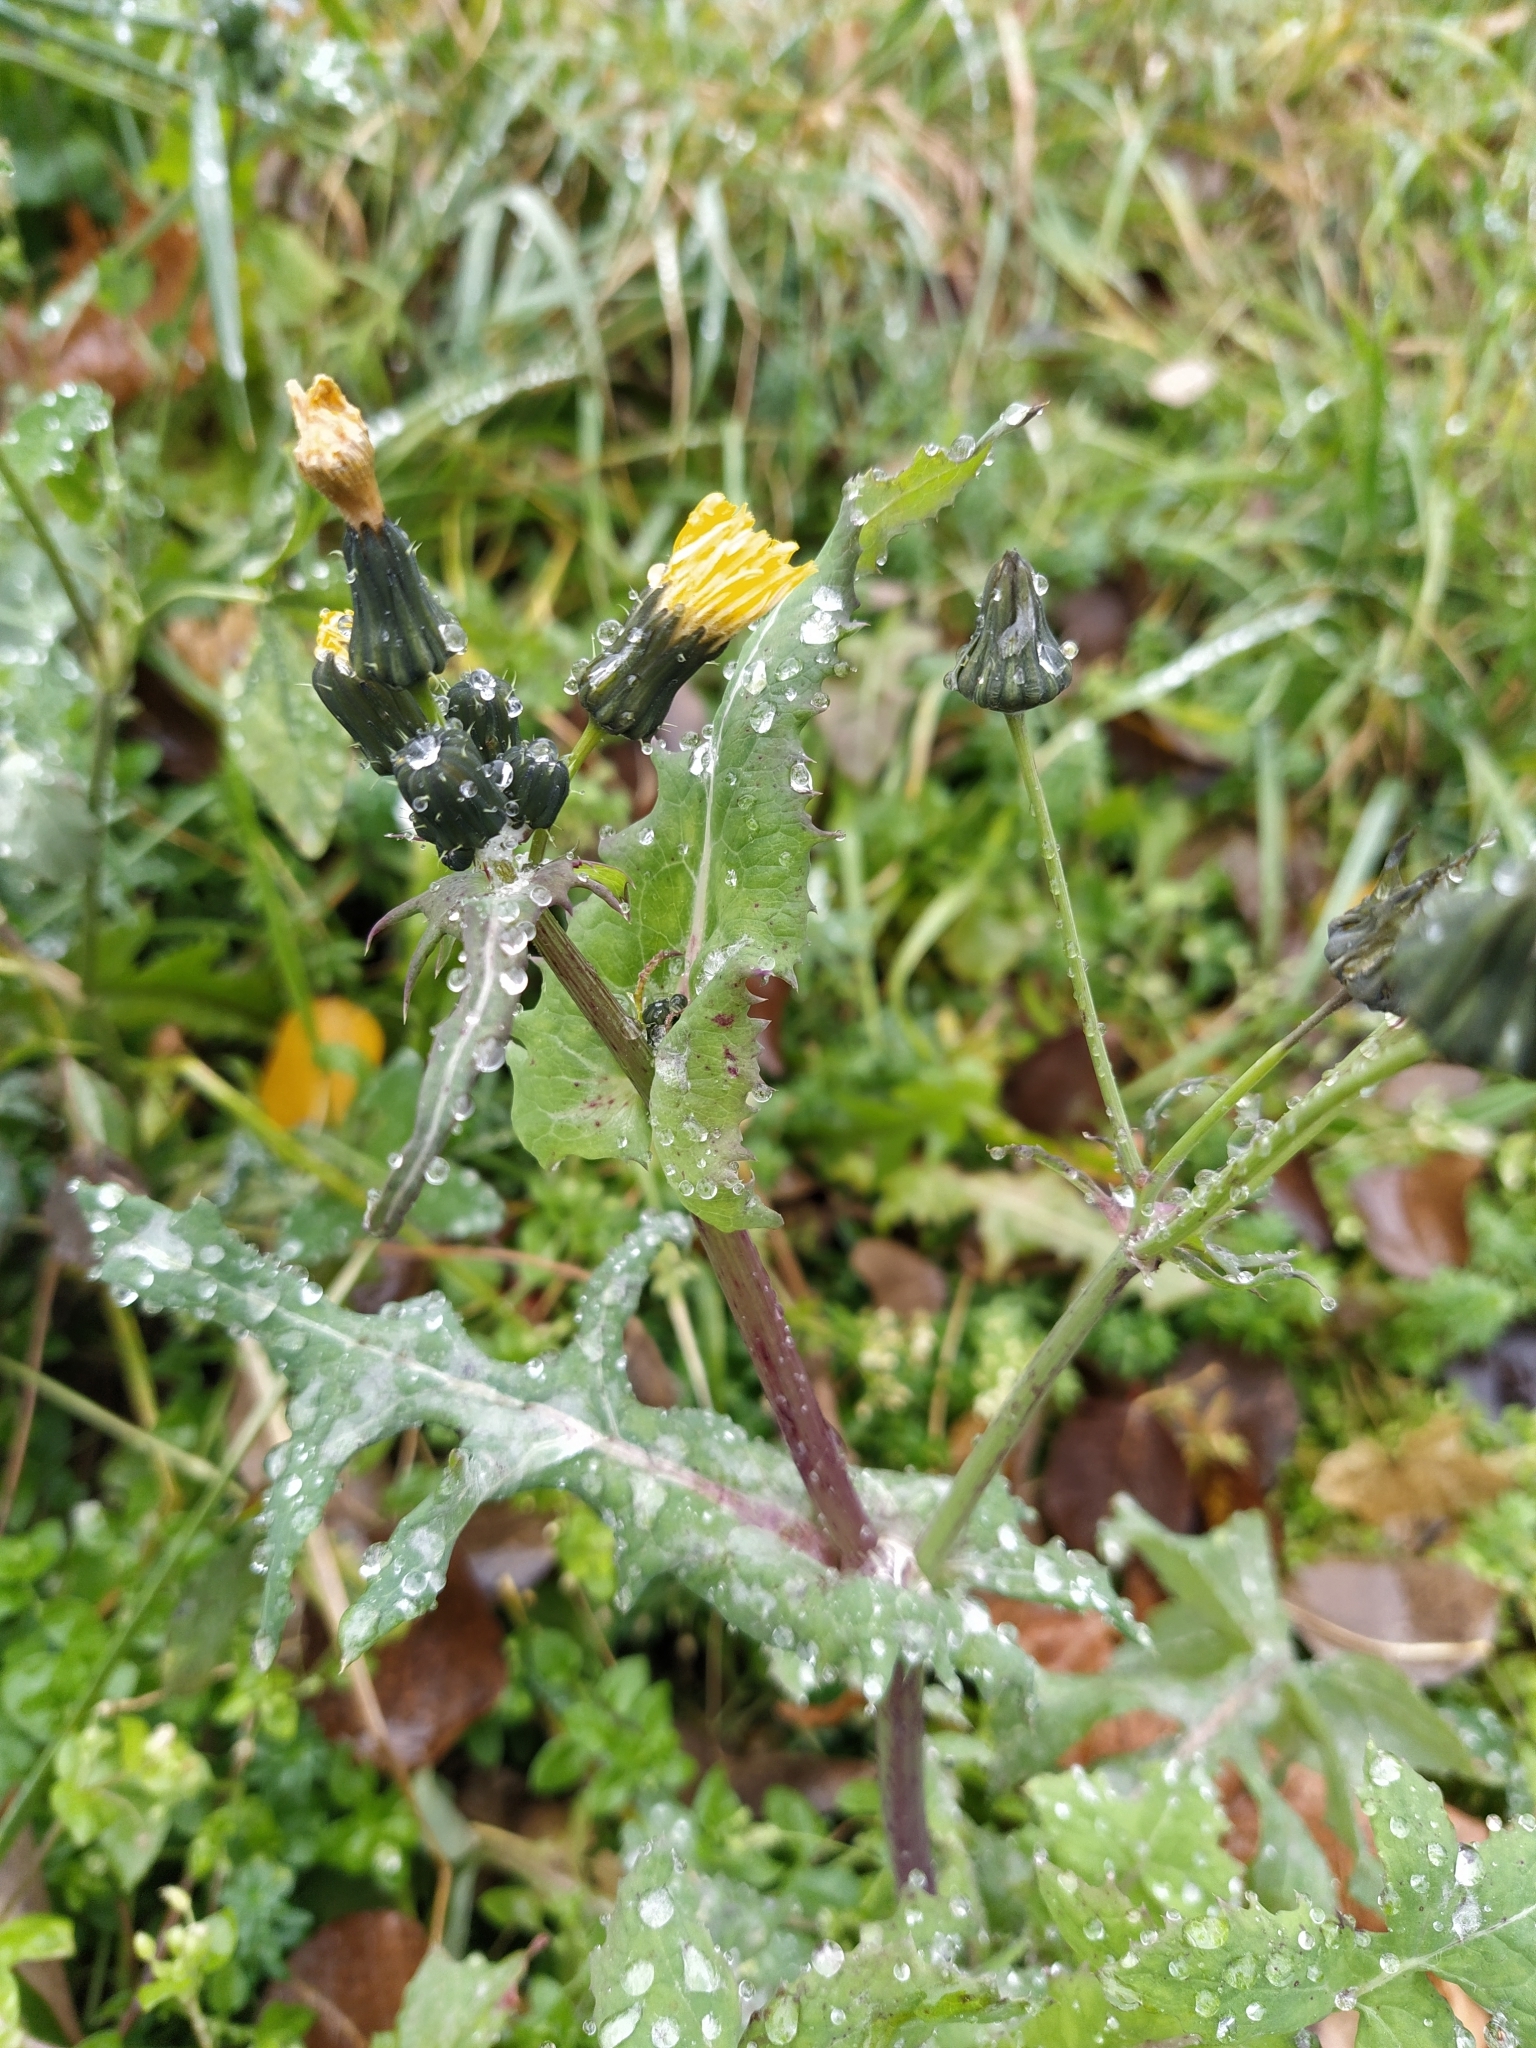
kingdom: Plantae
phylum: Tracheophyta
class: Magnoliopsida
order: Asterales
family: Asteraceae
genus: Sonchus
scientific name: Sonchus oleraceus
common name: Common sowthistle
